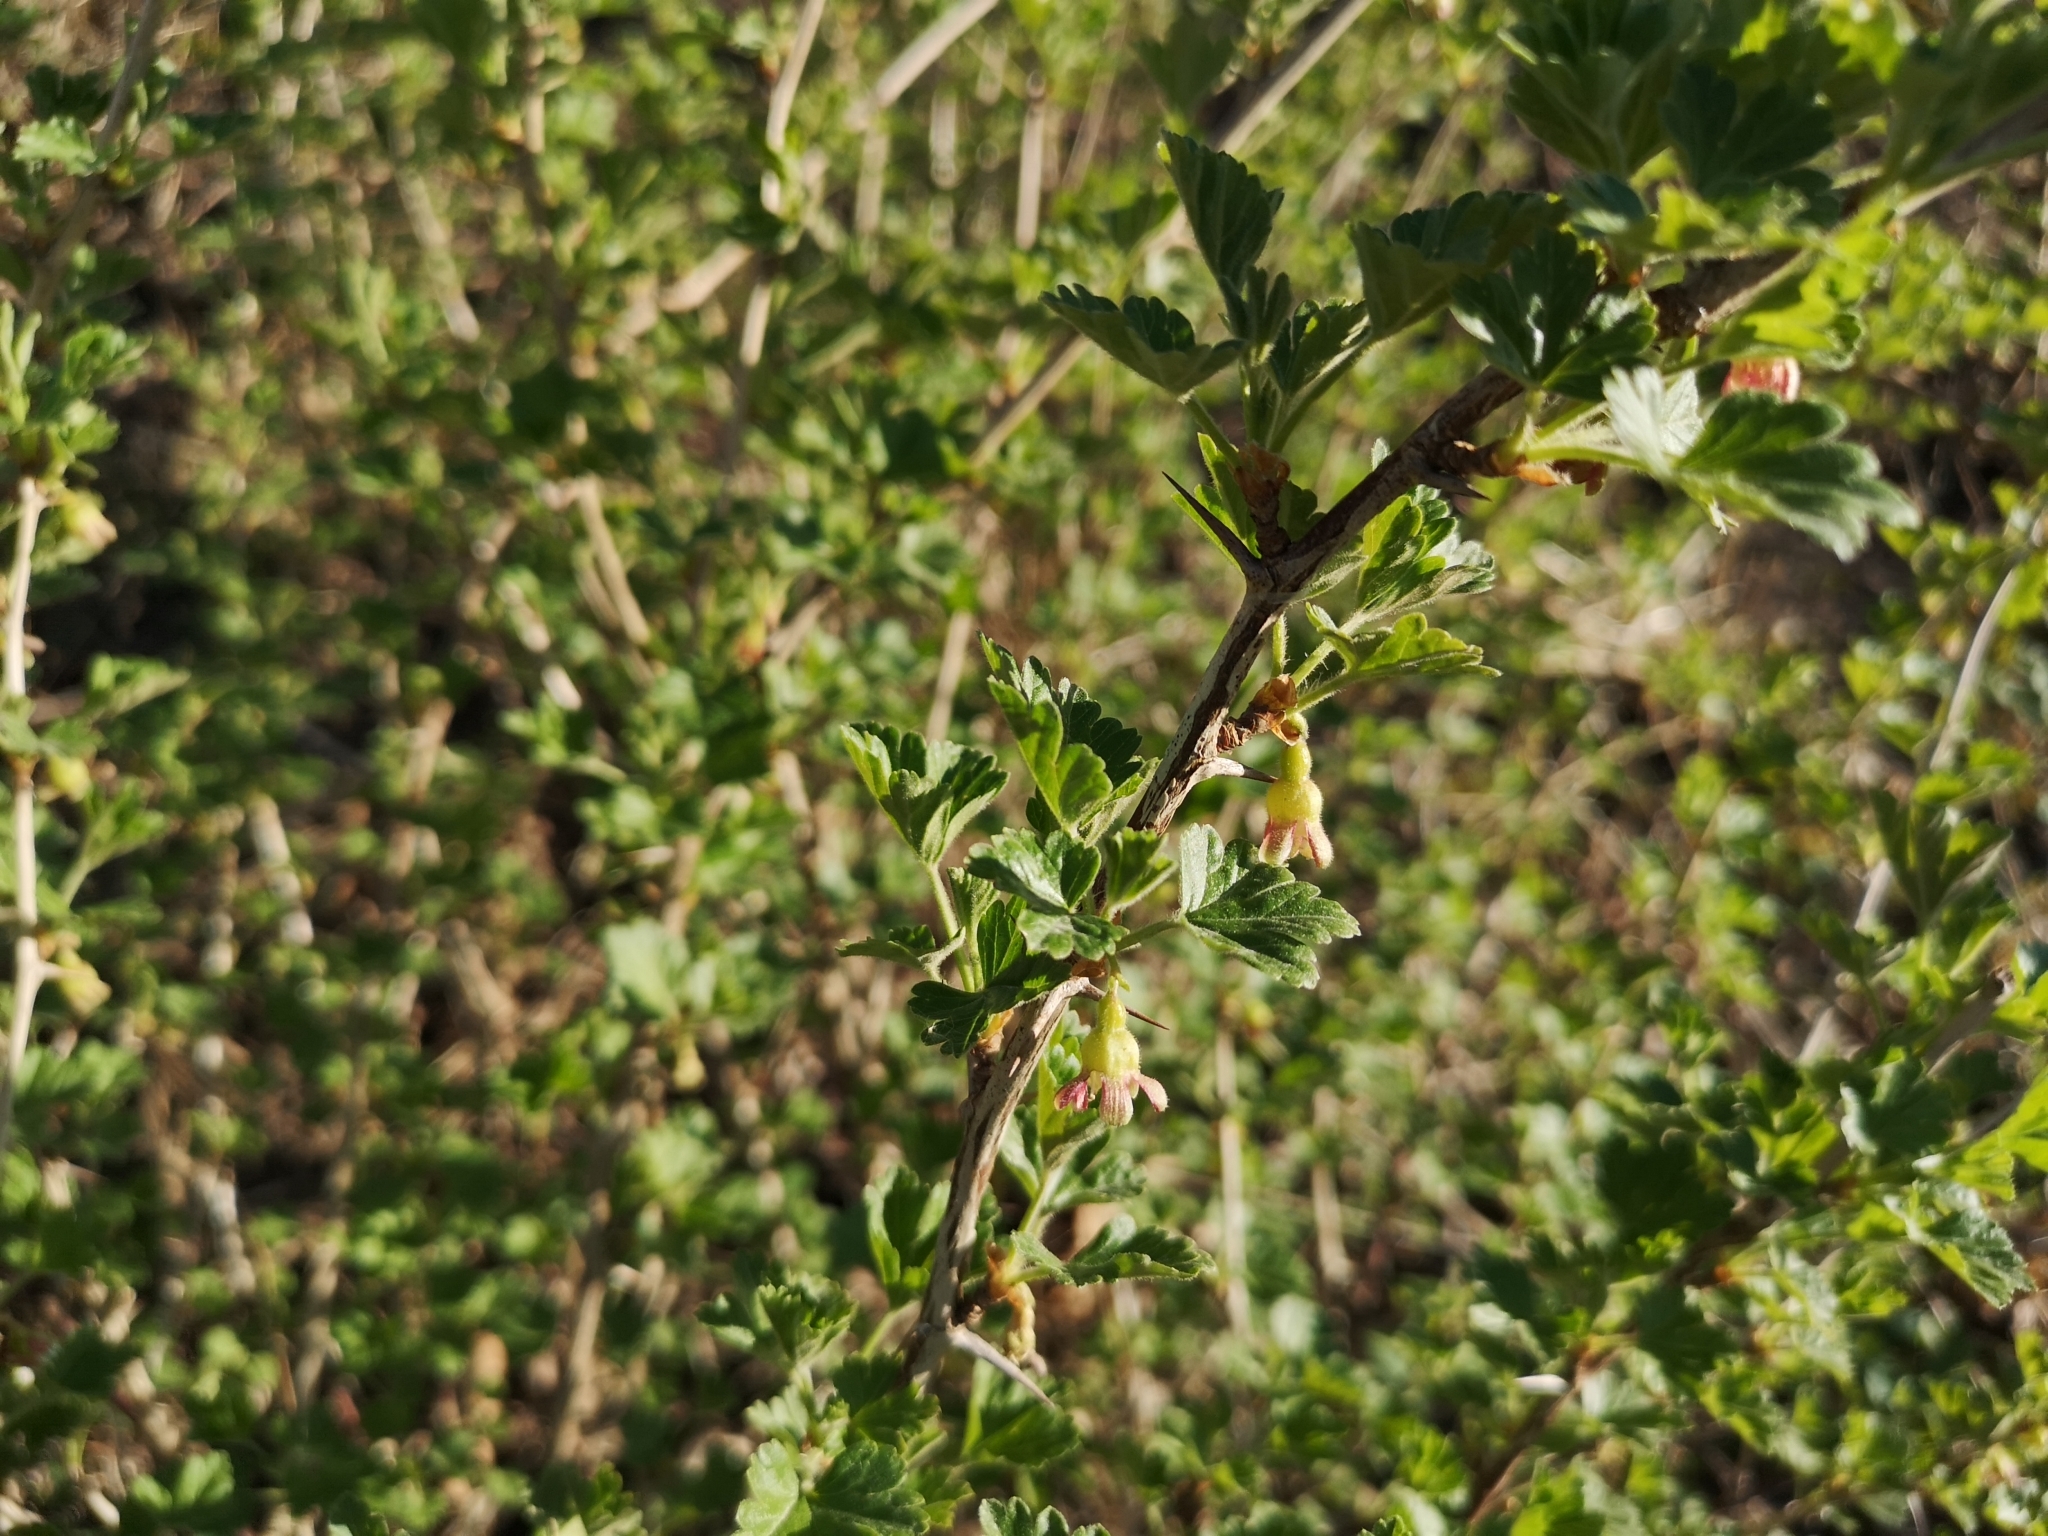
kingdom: Plantae
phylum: Tracheophyta
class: Magnoliopsida
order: Saxifragales
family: Grossulariaceae
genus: Ribes
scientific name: Ribes uva-crispa
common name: Gooseberry
